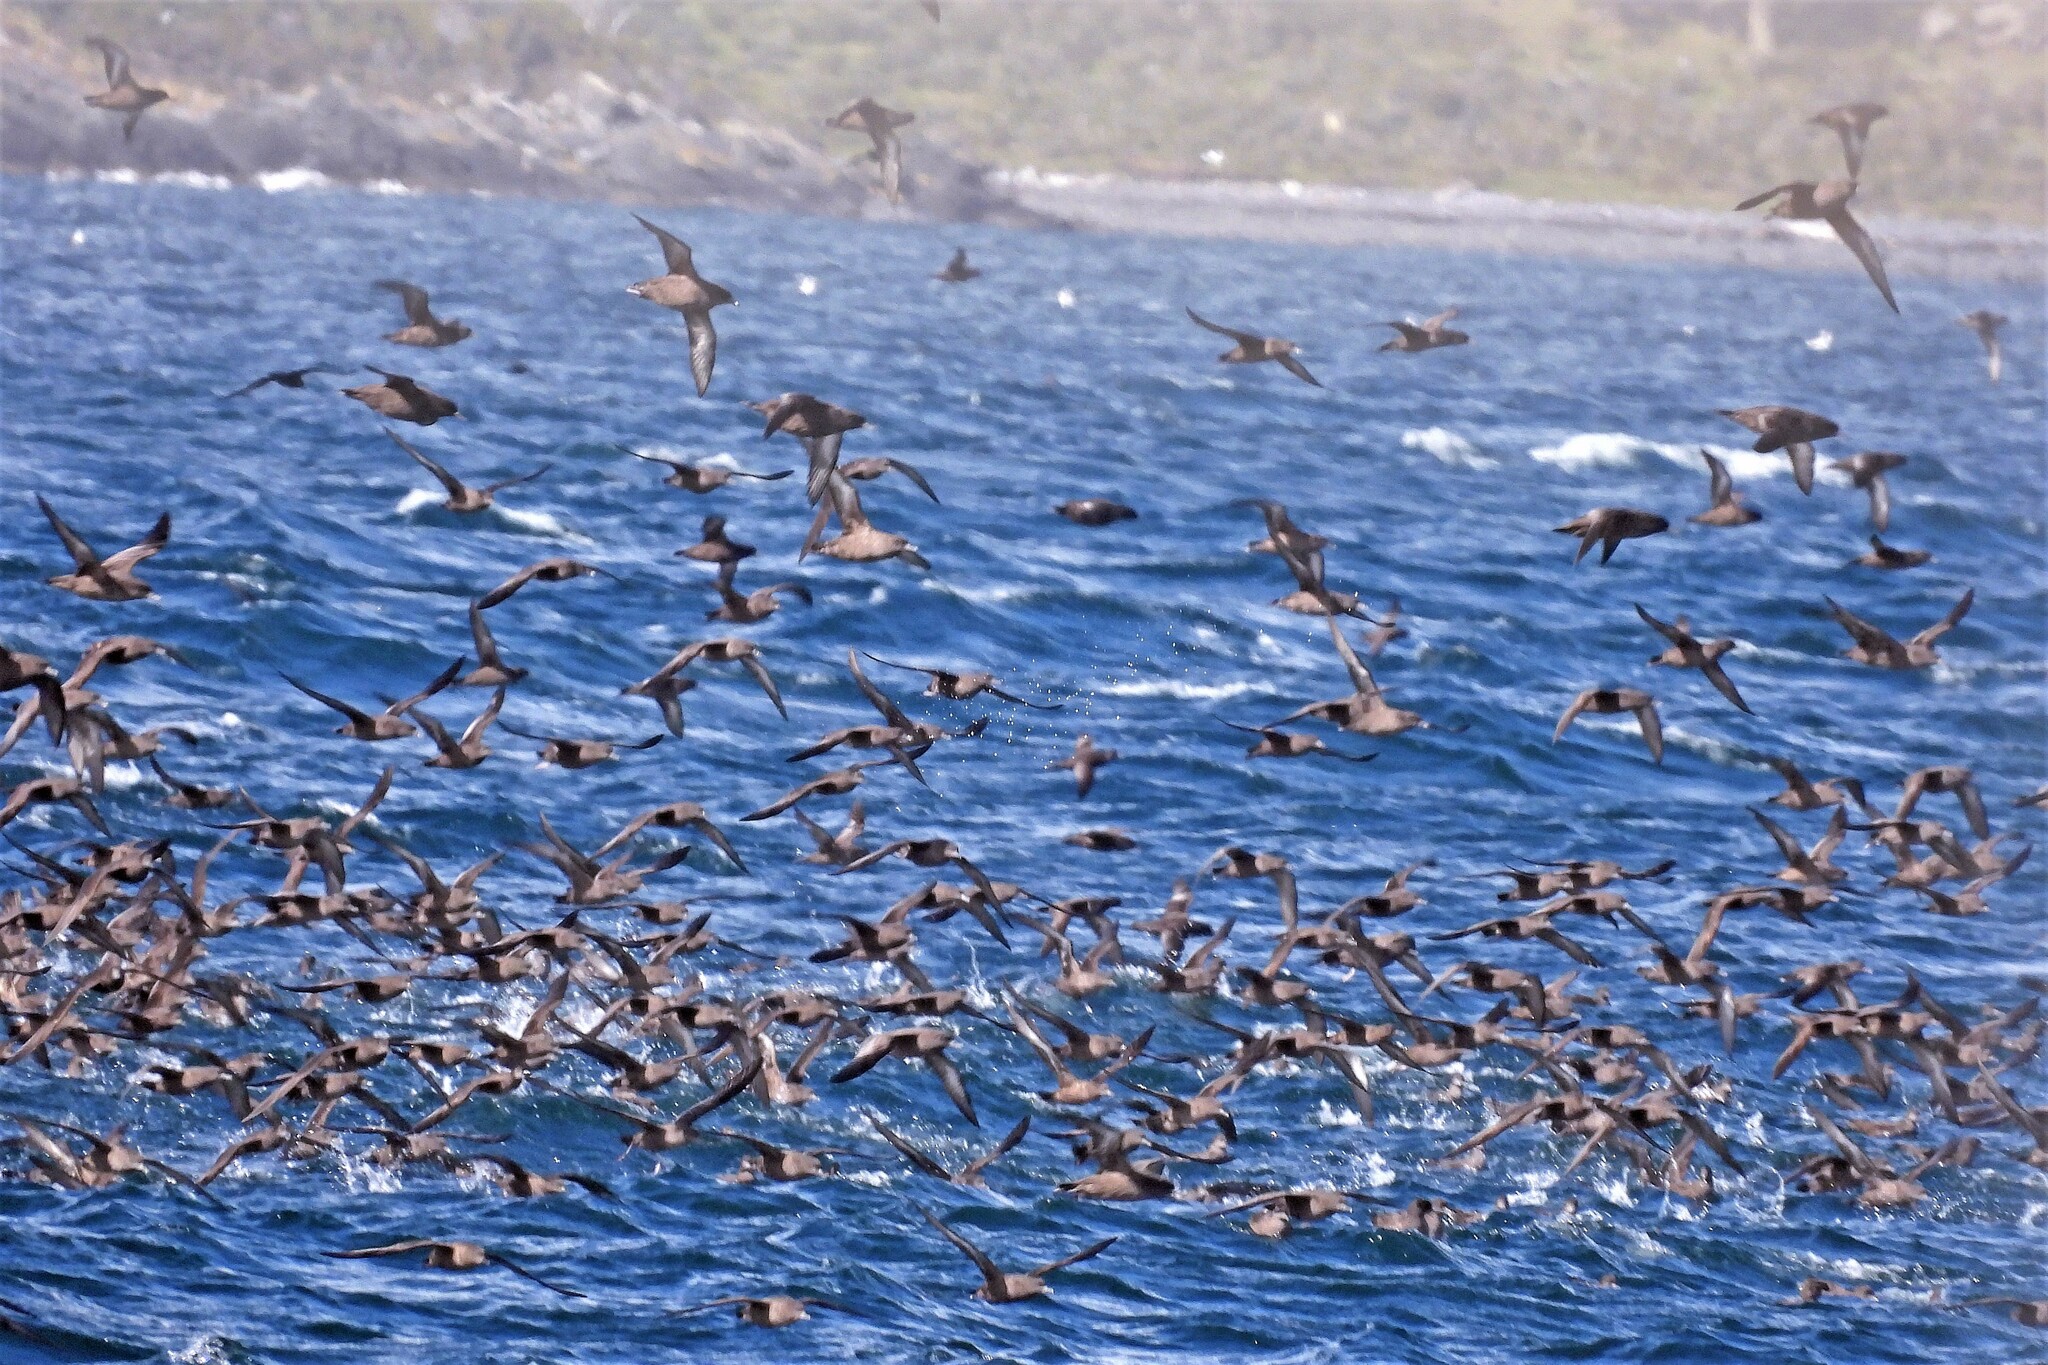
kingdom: Animalia
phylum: Chordata
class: Aves
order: Procellariiformes
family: Procellariidae
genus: Puffinus
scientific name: Puffinus griseus
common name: Sooty shearwater
